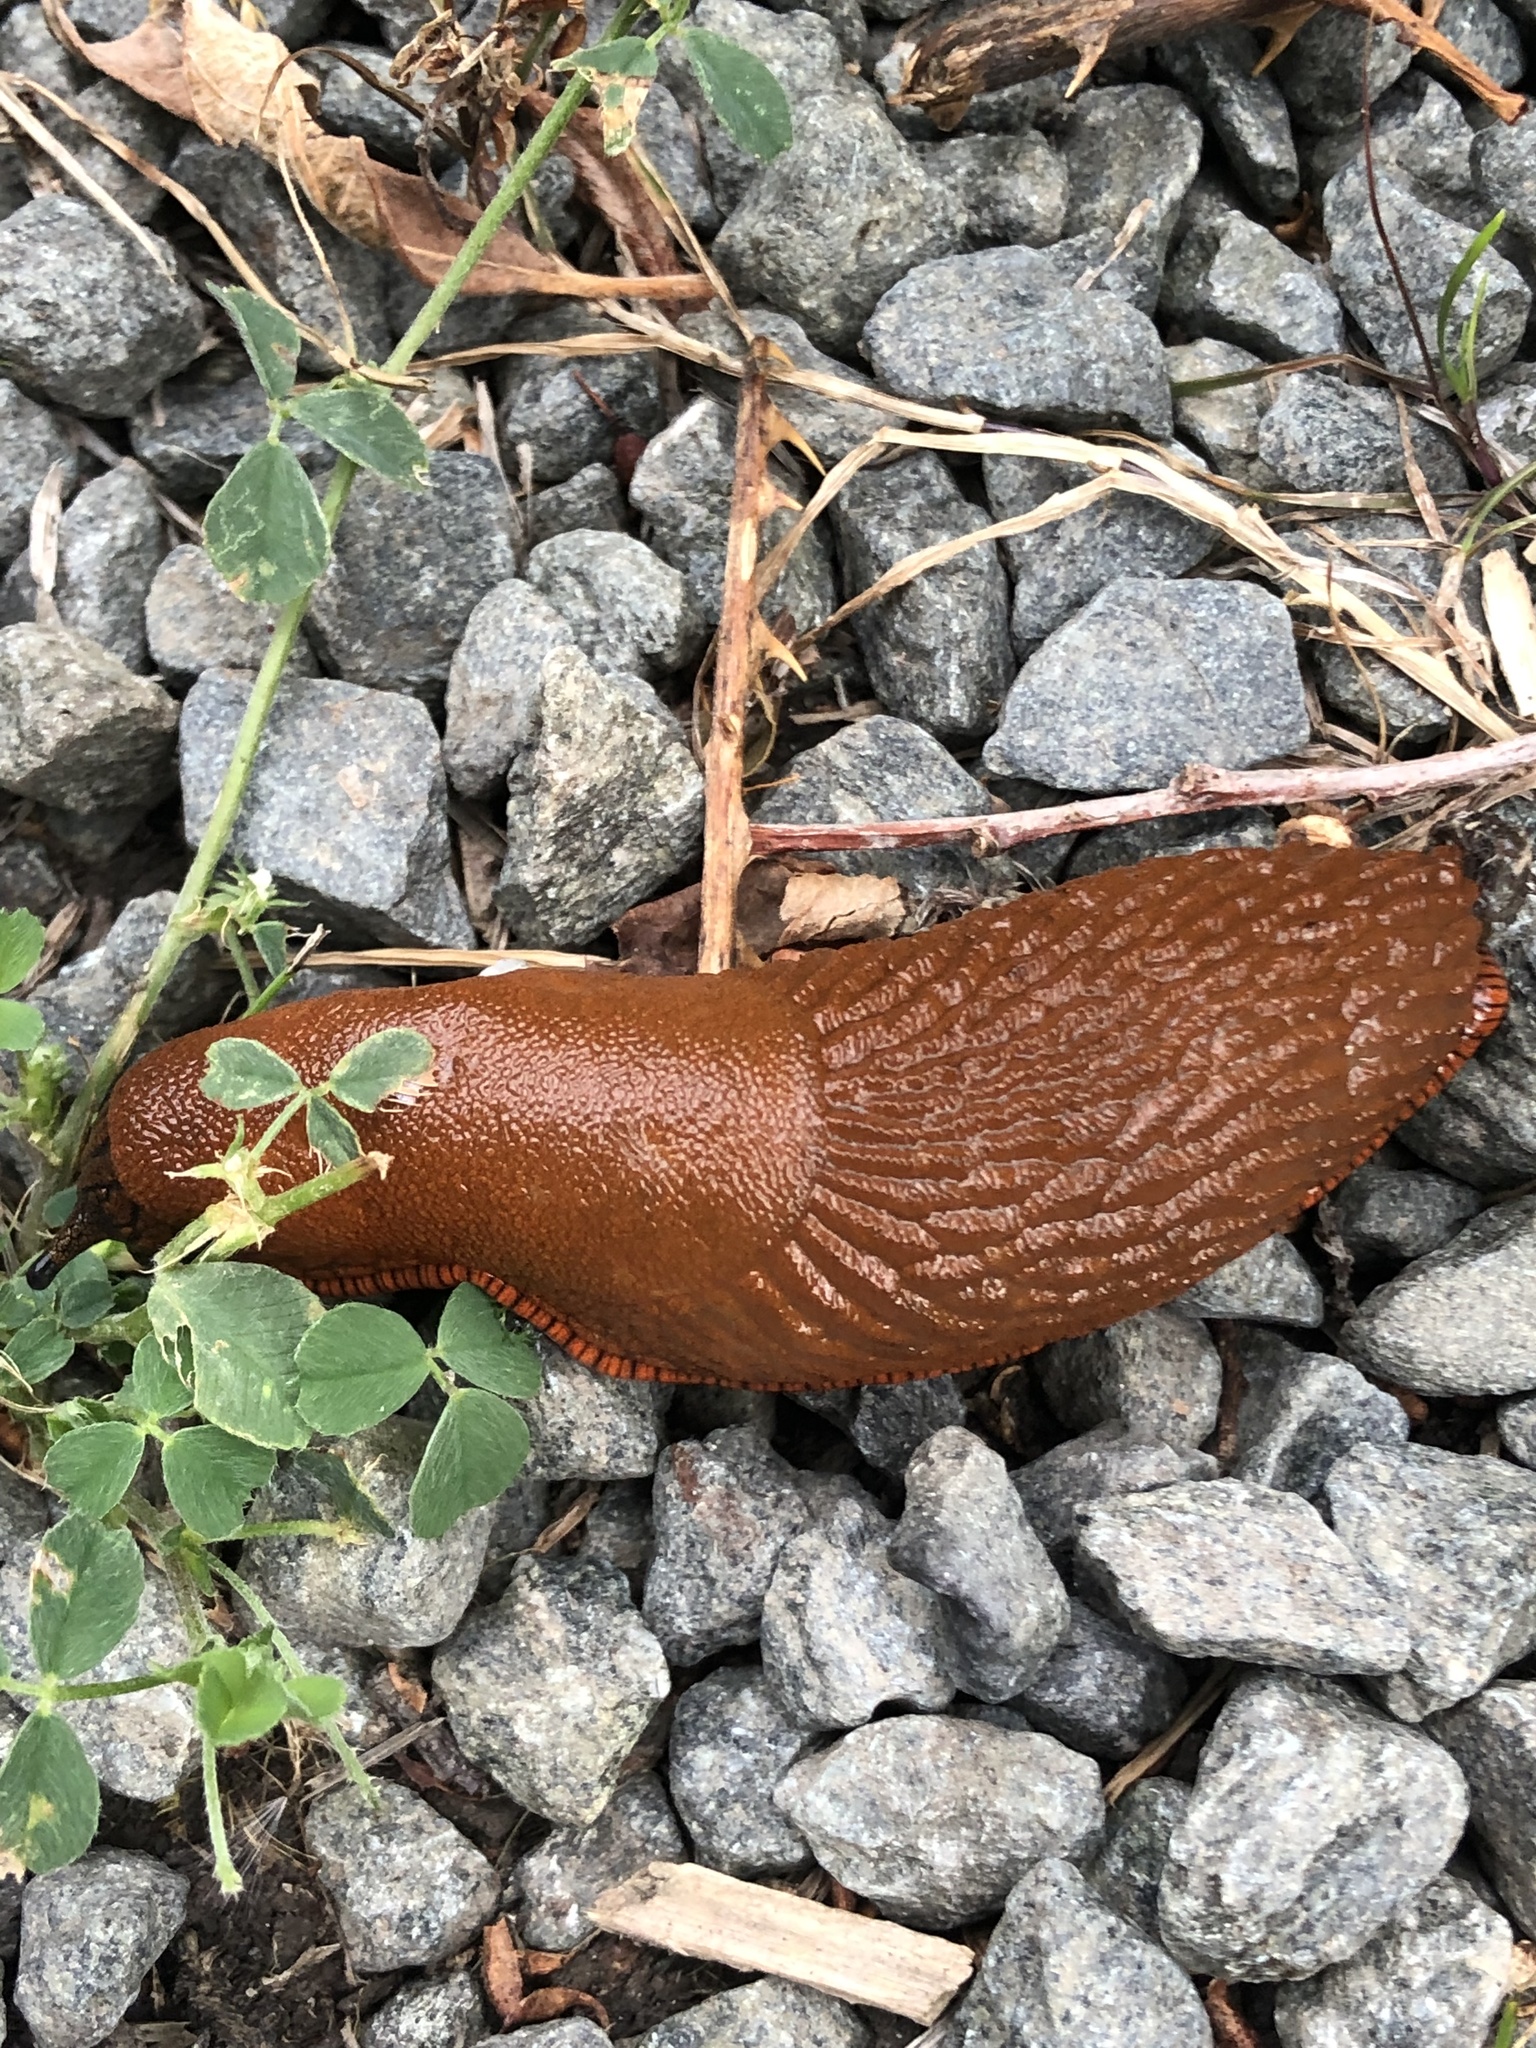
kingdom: Animalia
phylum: Mollusca
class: Gastropoda
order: Stylommatophora
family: Arionidae
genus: Arion
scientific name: Arion rufus
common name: Chocolate arion
